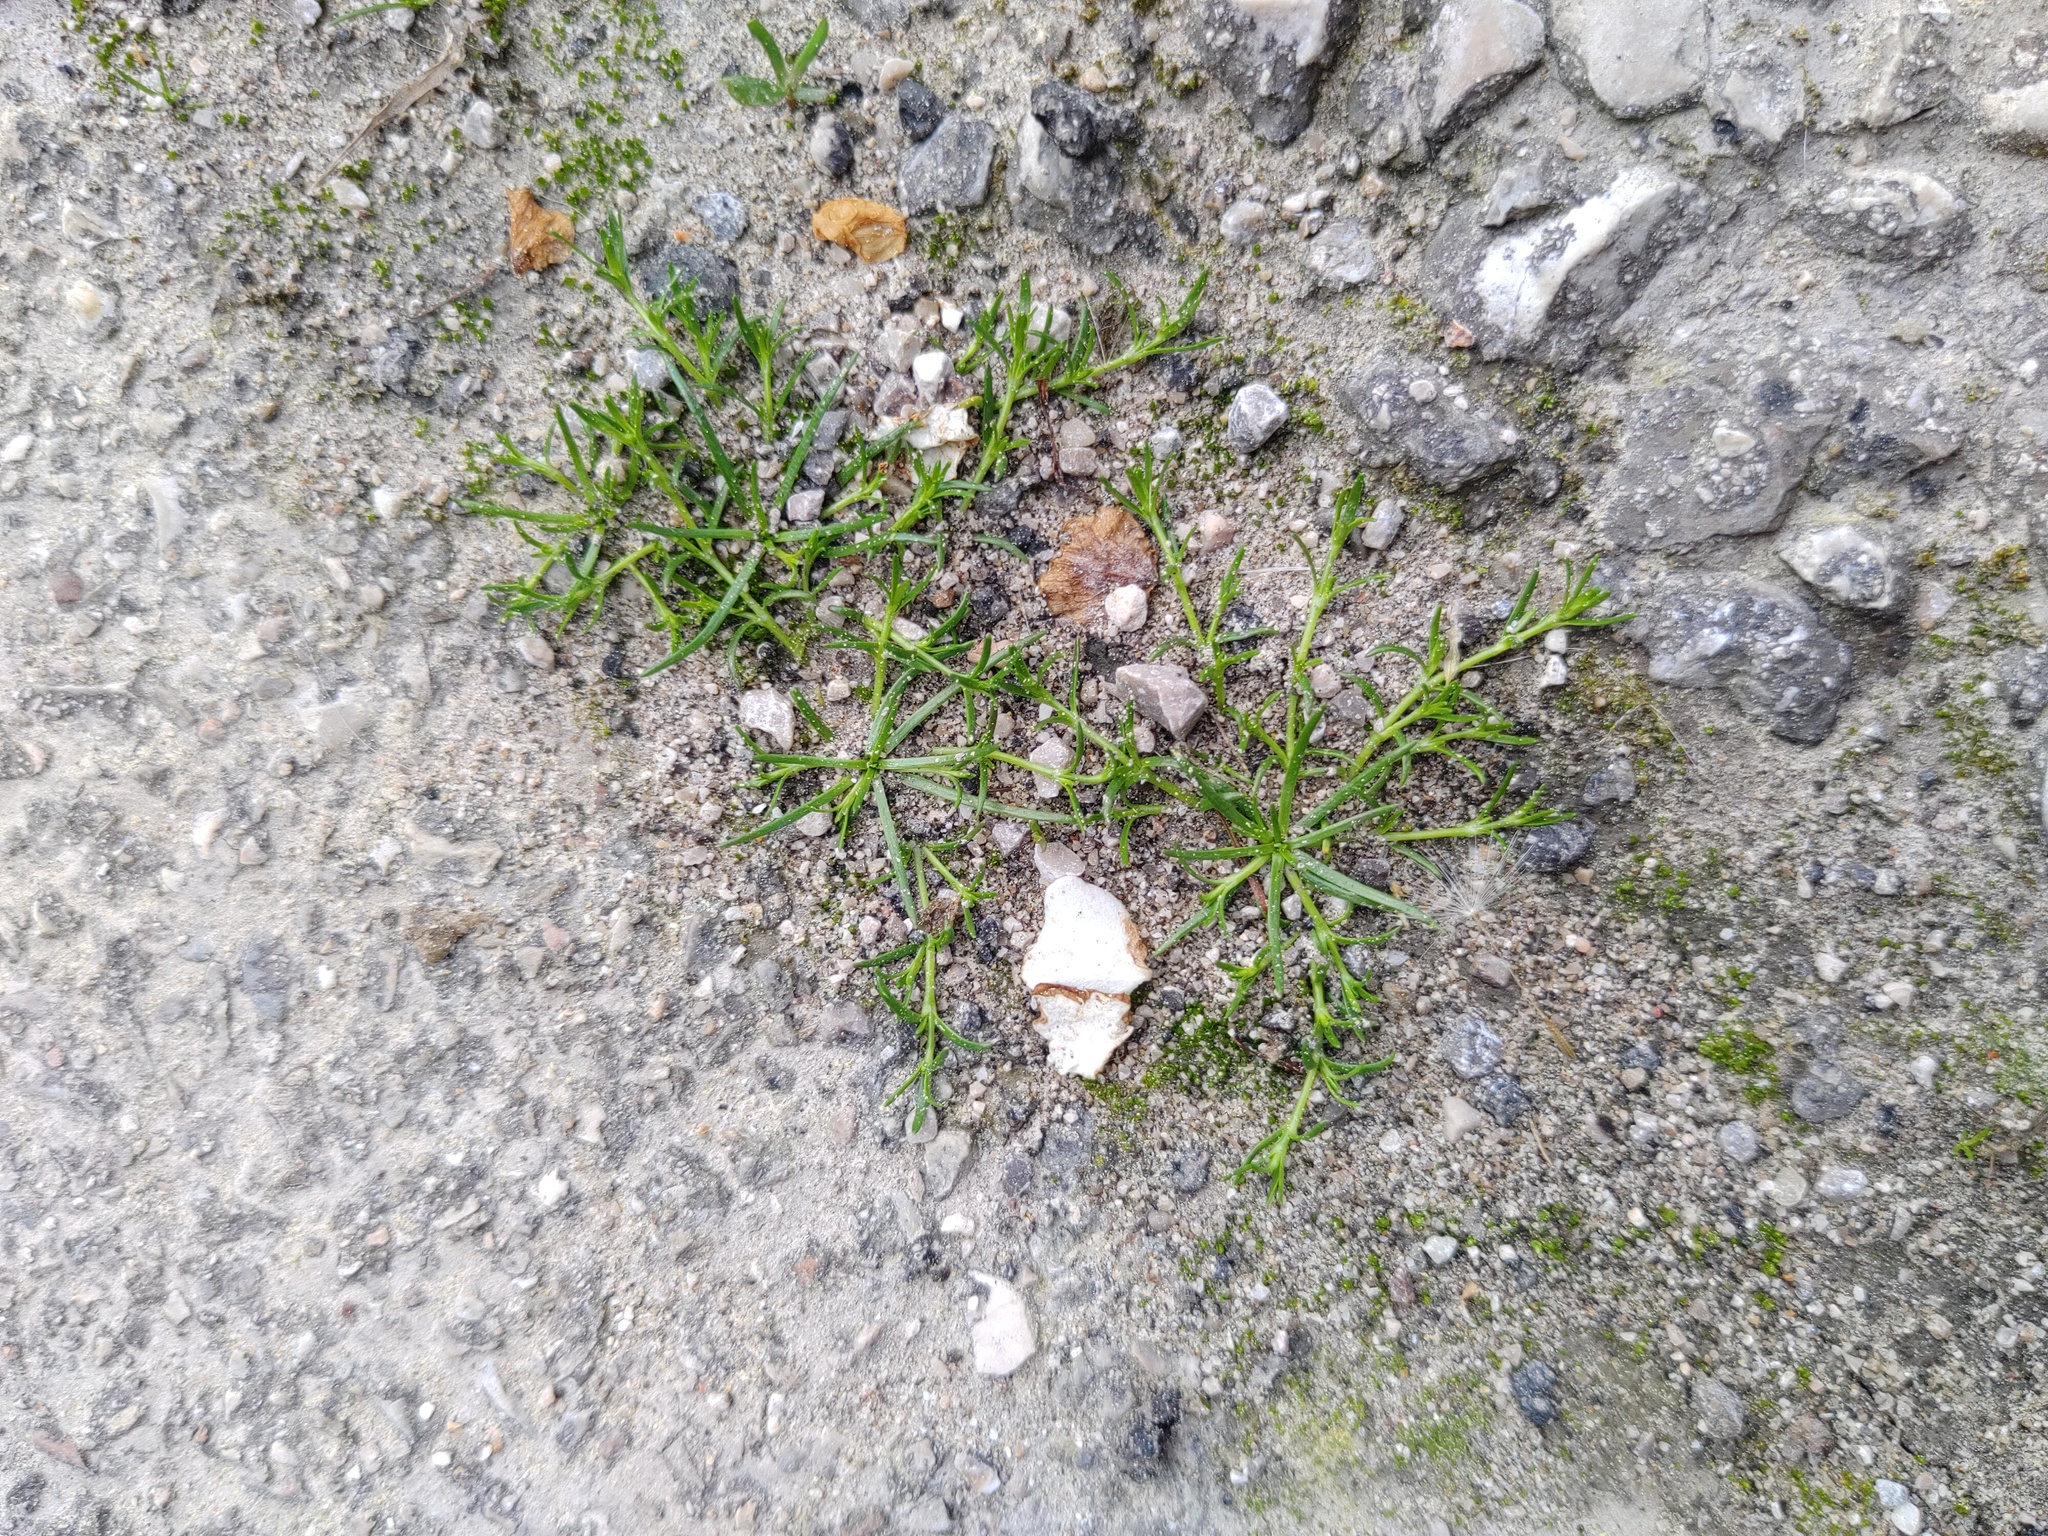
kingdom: Plantae
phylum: Tracheophyta
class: Magnoliopsida
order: Caryophyllales
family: Caryophyllaceae
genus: Sagina
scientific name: Sagina procumbens
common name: Procumbent pearlwort
